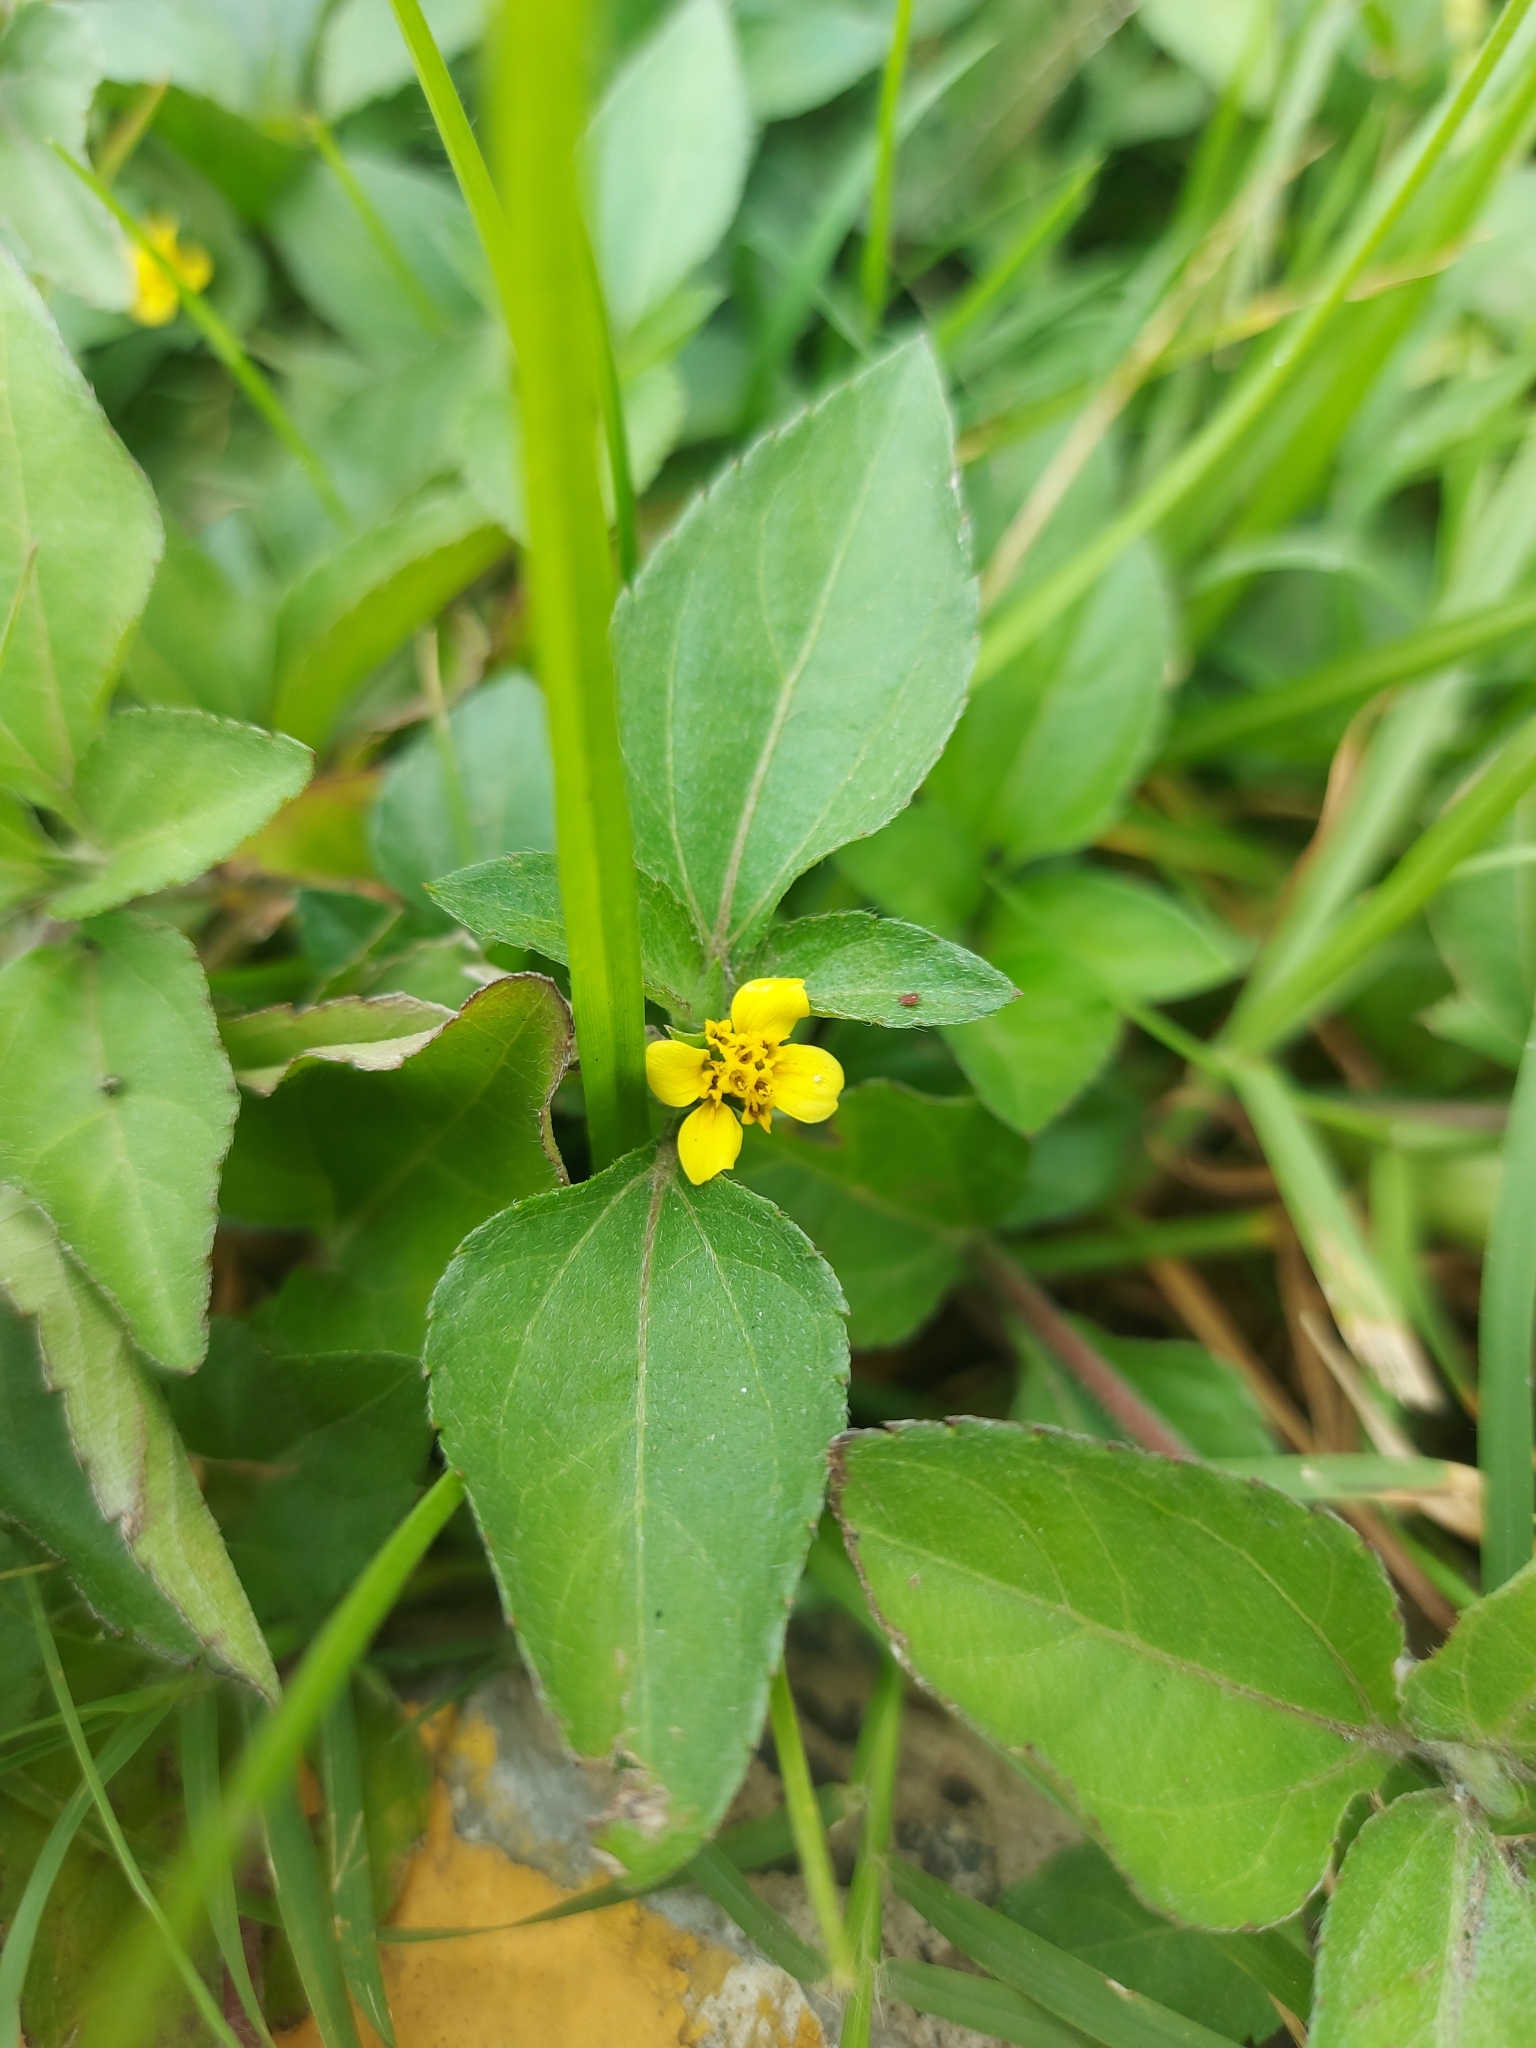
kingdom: Plantae
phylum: Tracheophyta
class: Magnoliopsida
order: Asterales
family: Asteraceae
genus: Calyptocarpus
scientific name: Calyptocarpus vialis
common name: Straggler daisy
